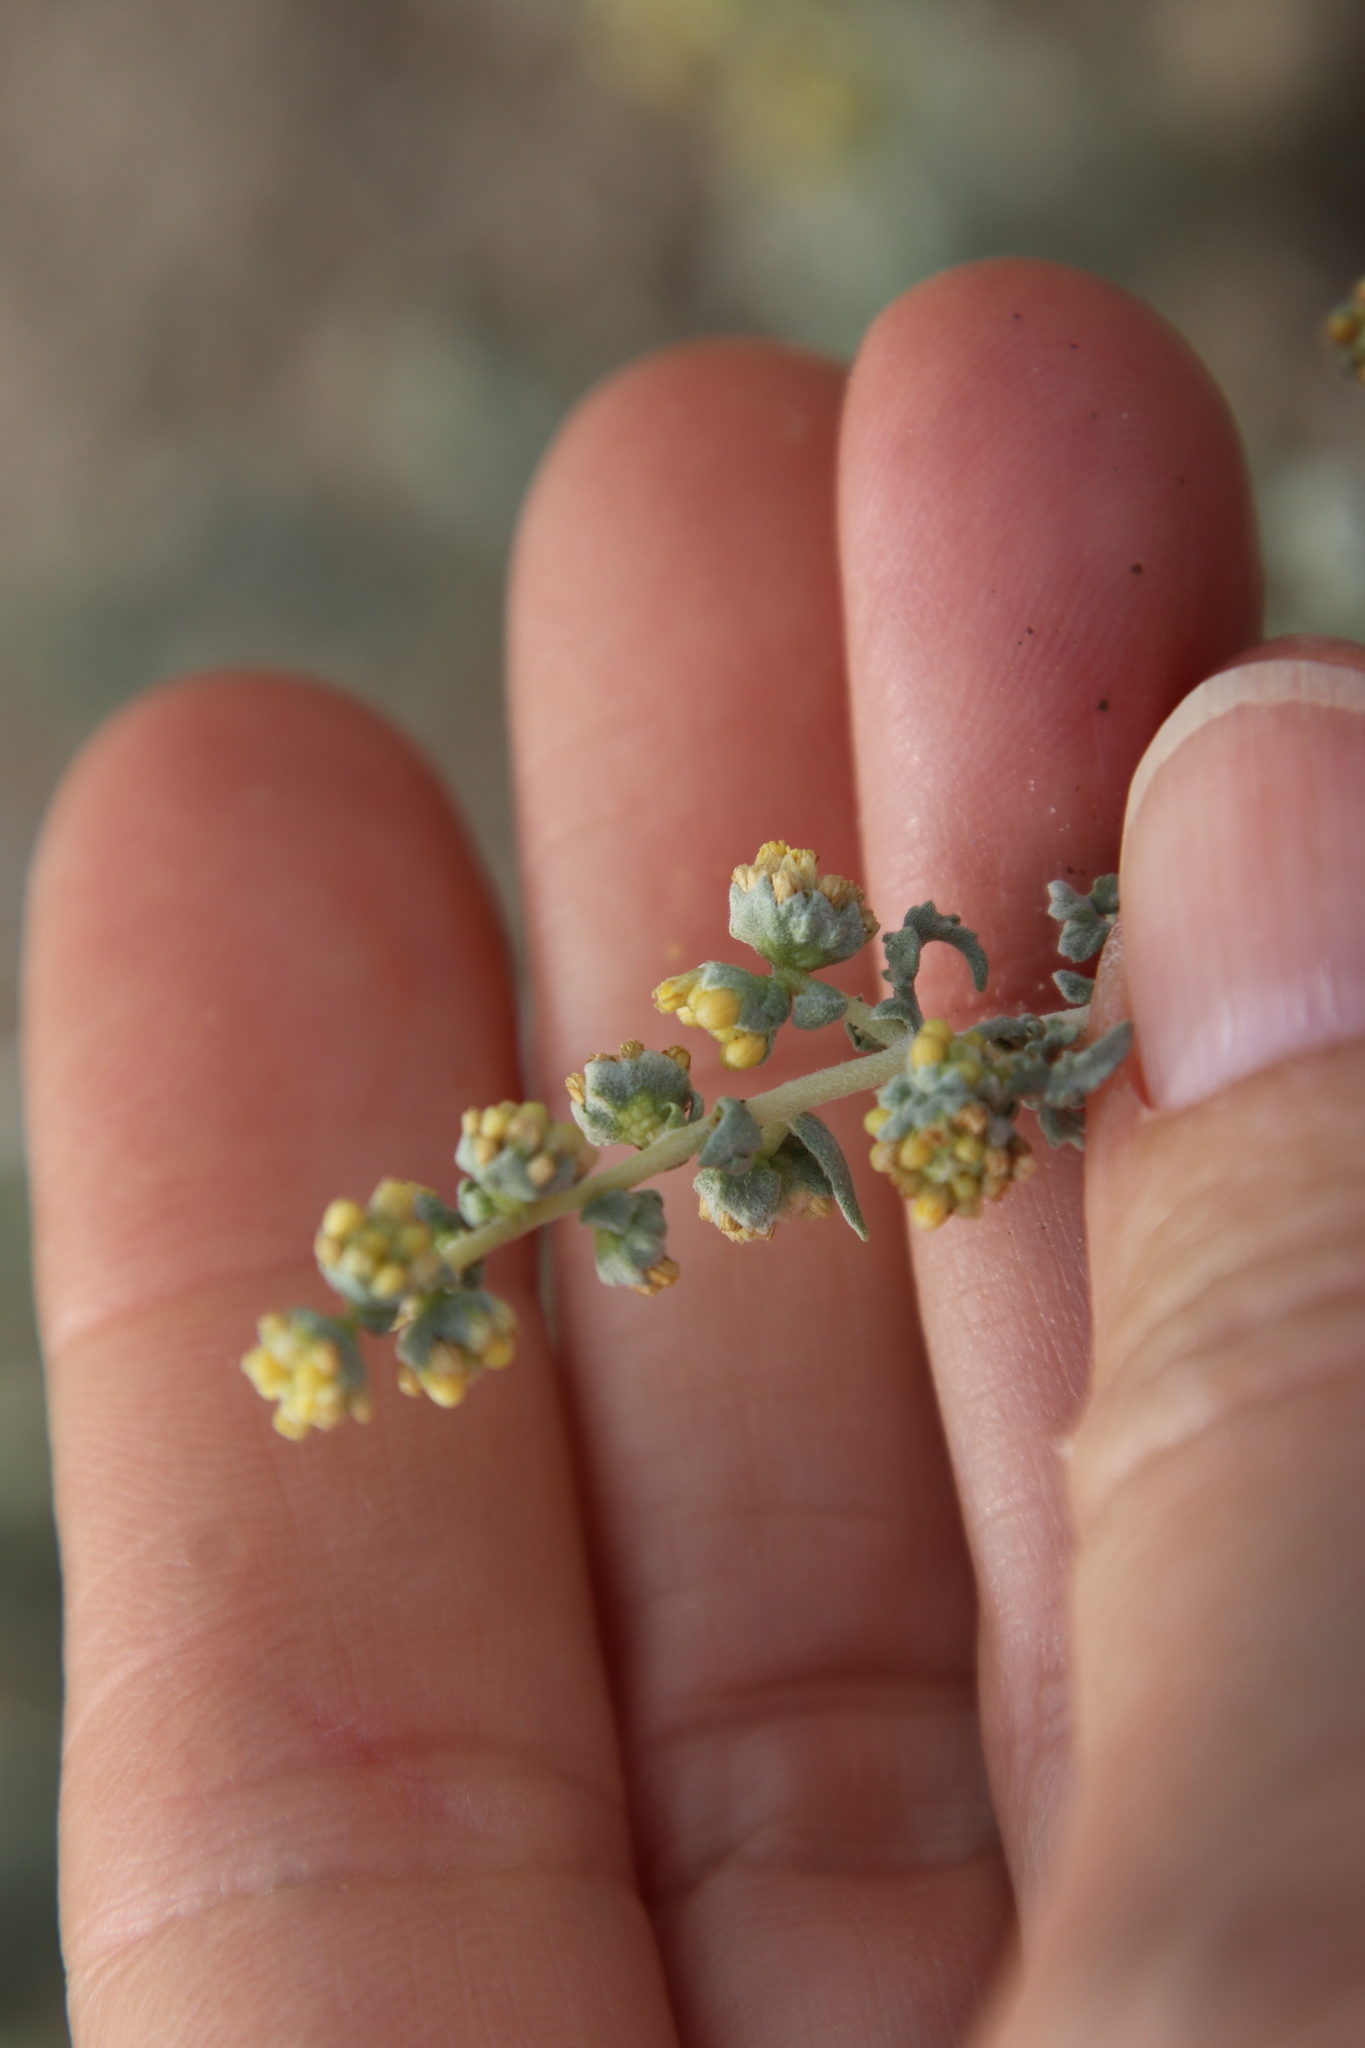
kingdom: Plantae
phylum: Tracheophyta
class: Magnoliopsida
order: Asterales
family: Asteraceae
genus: Ambrosia
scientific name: Ambrosia dumosa
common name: Bur-sage
